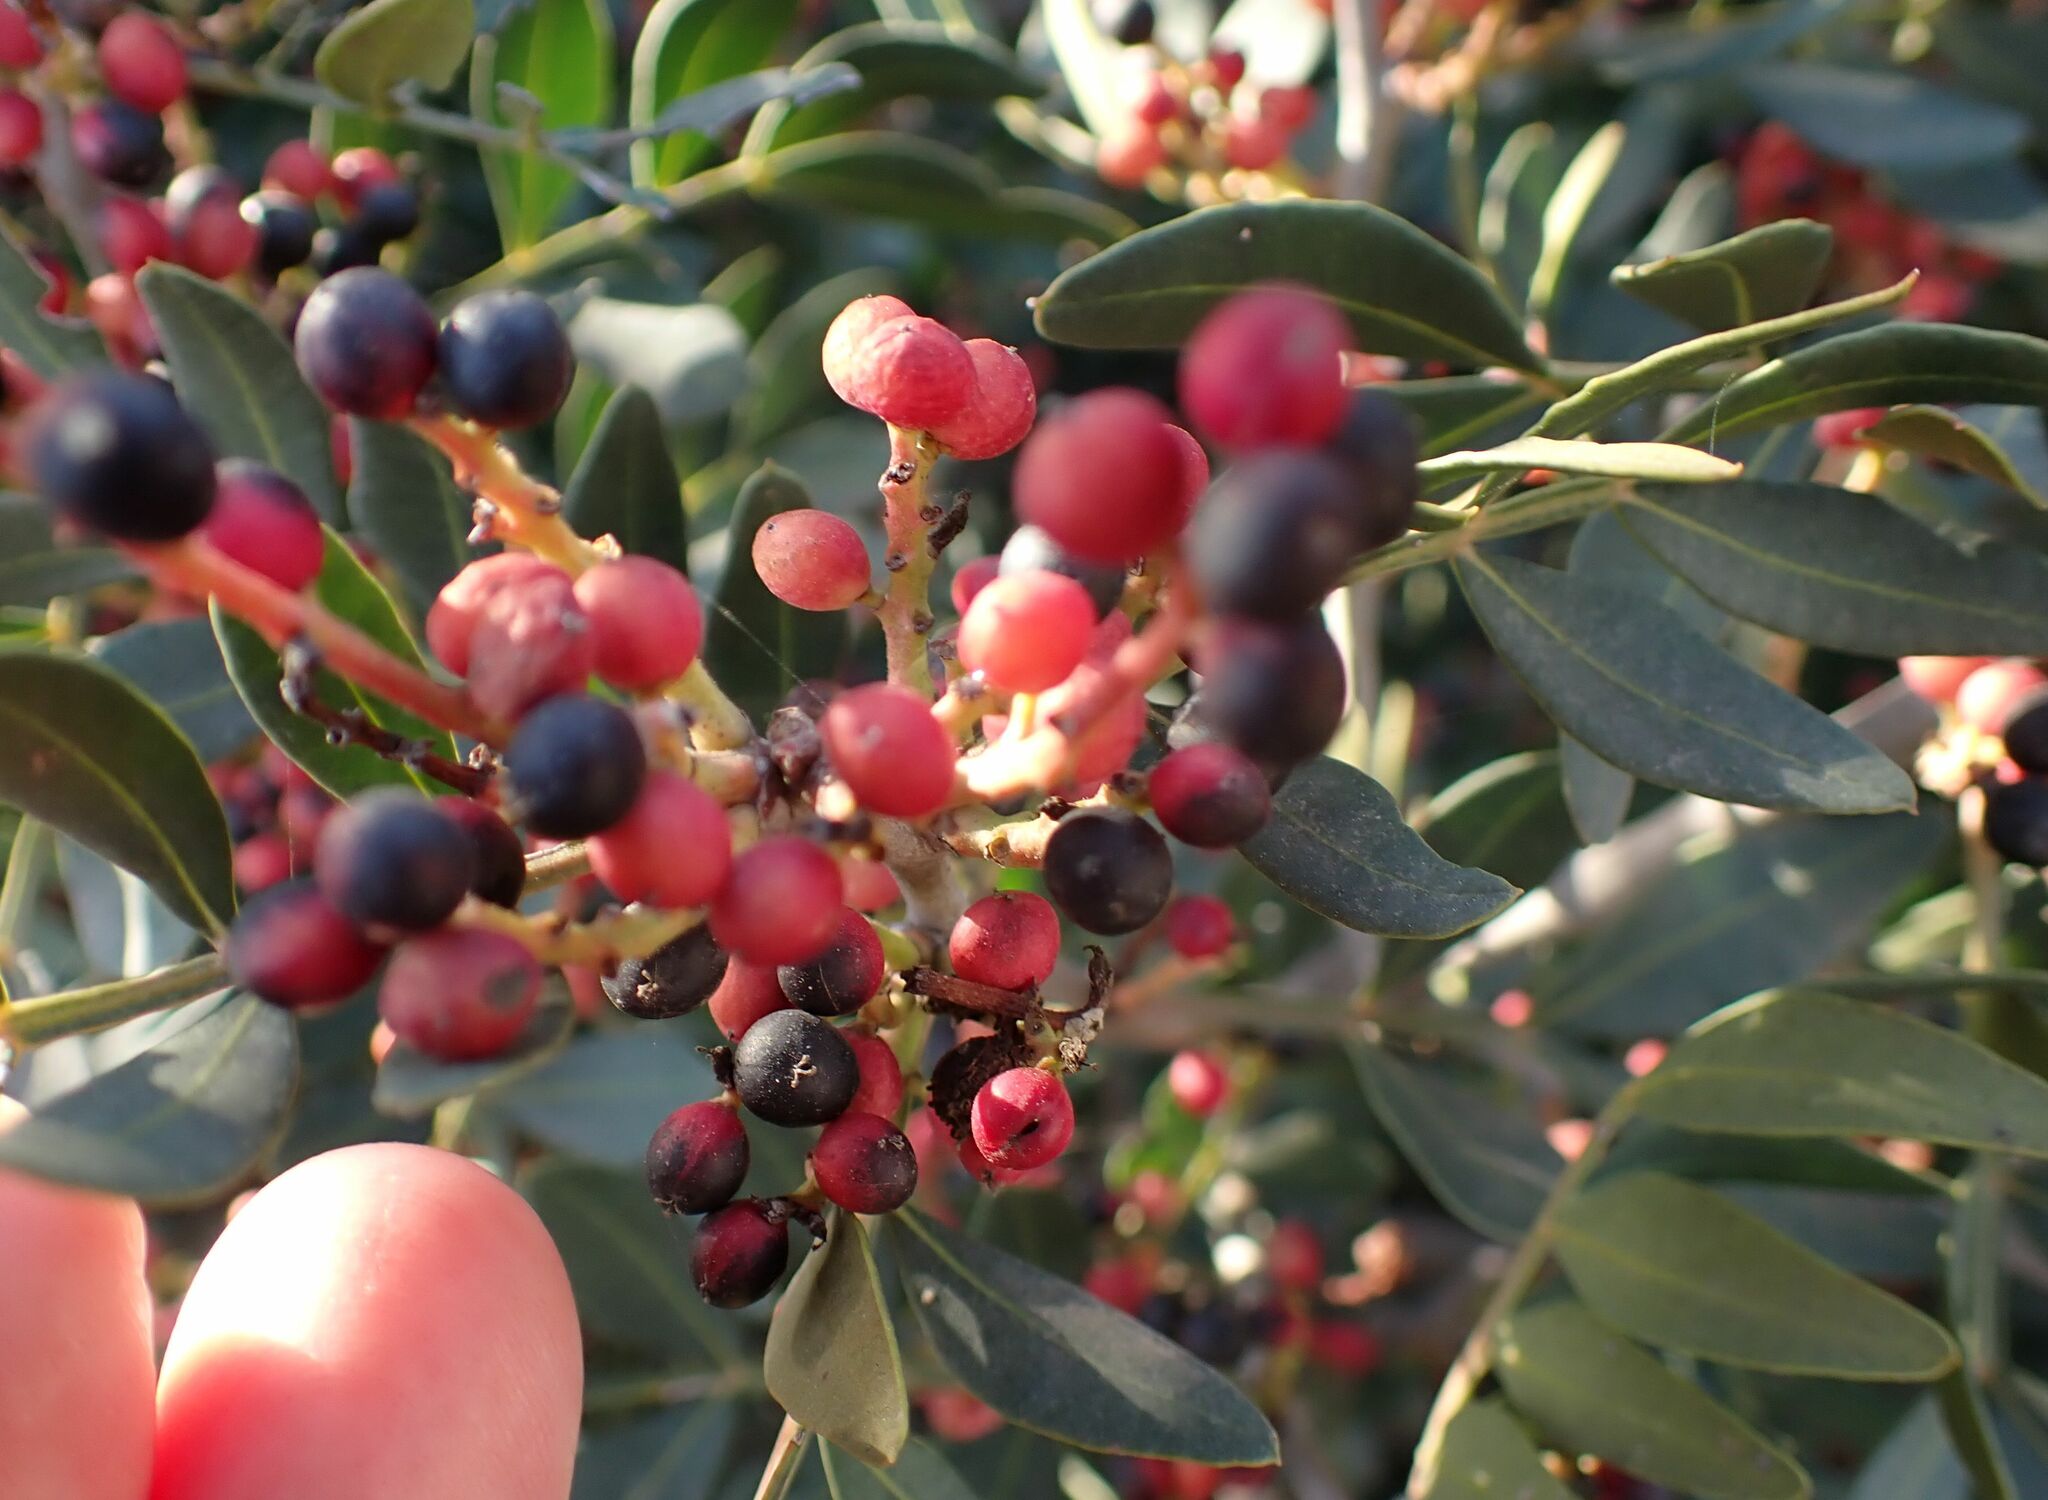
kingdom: Plantae
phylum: Tracheophyta
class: Magnoliopsida
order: Sapindales
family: Anacardiaceae
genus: Pistacia
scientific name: Pistacia lentiscus
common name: Lentisk
